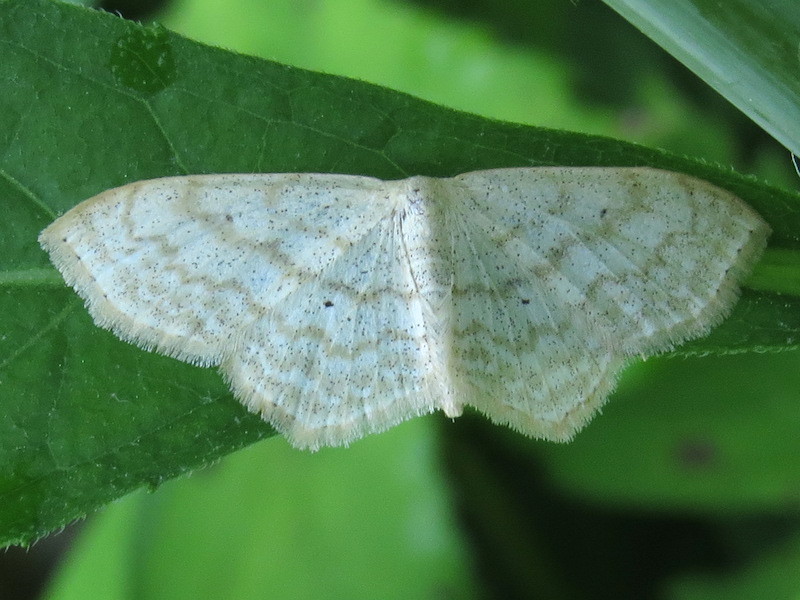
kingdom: Animalia
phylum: Arthropoda
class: Insecta
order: Lepidoptera
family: Geometridae
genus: Scopula
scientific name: Scopula limboundata
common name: Large lace border
